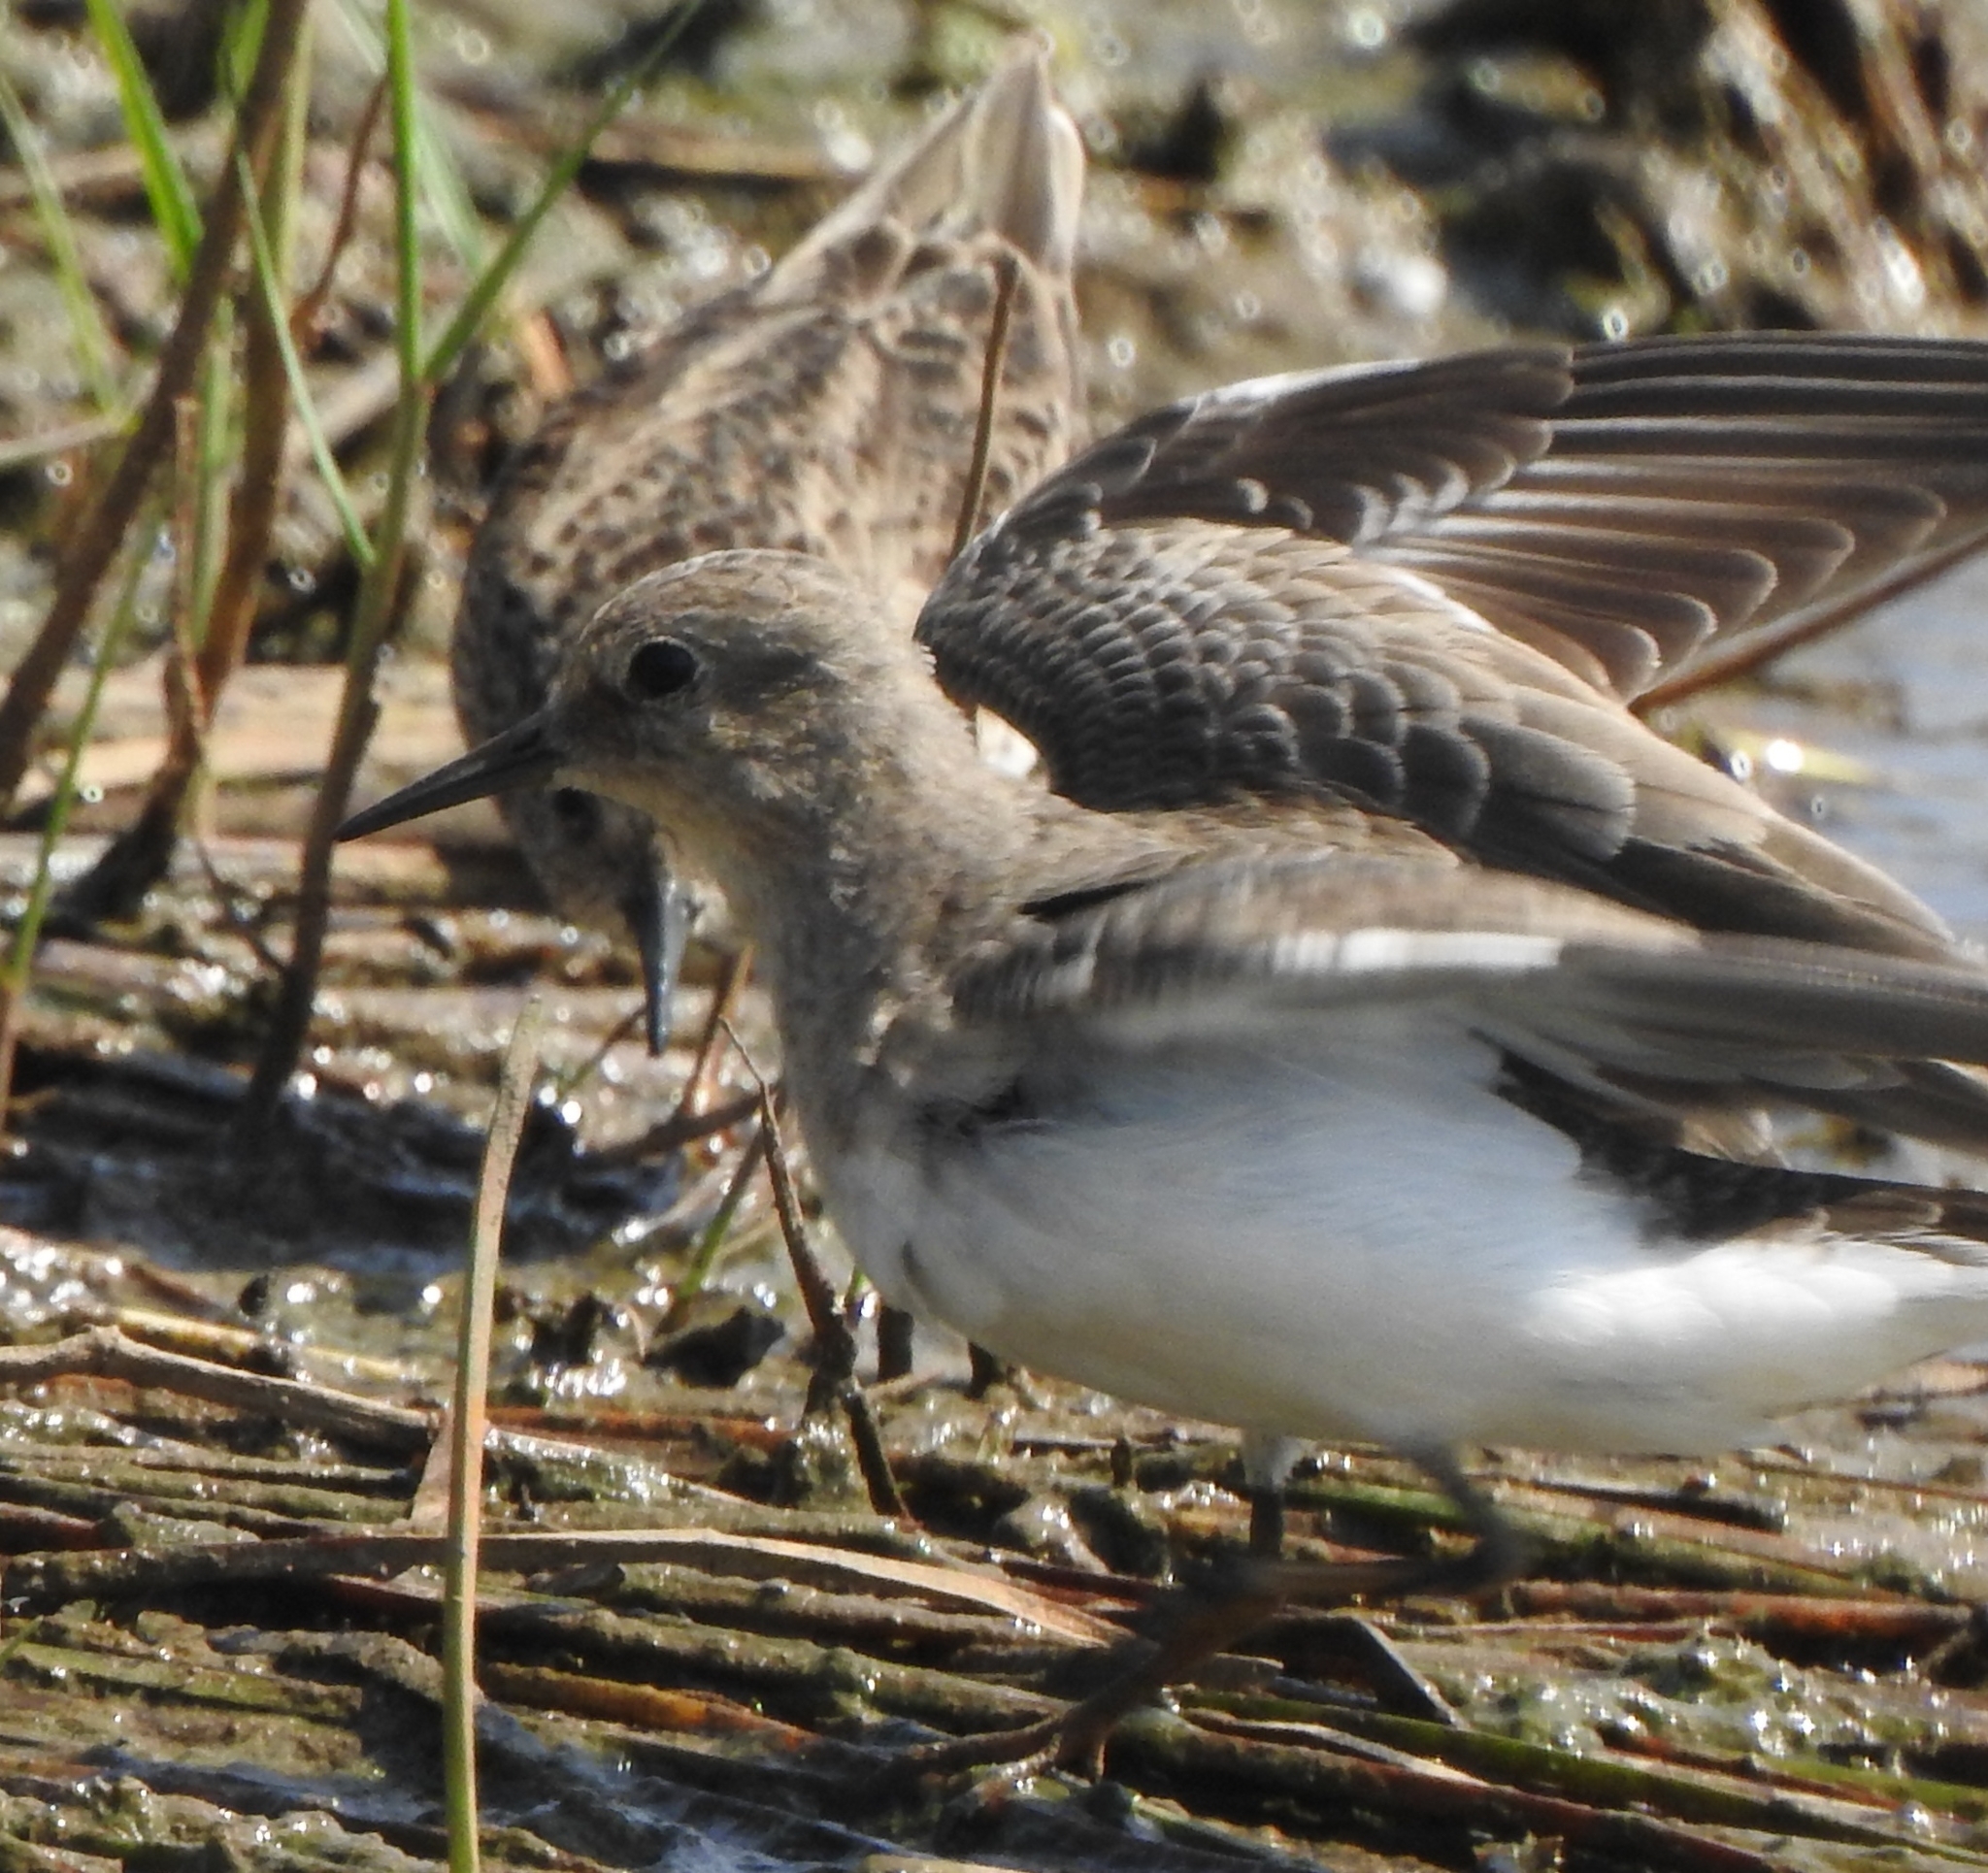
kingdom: Animalia
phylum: Chordata
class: Aves
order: Charadriiformes
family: Scolopacidae
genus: Calidris
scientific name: Calidris temminckii
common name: Temminck's stint
